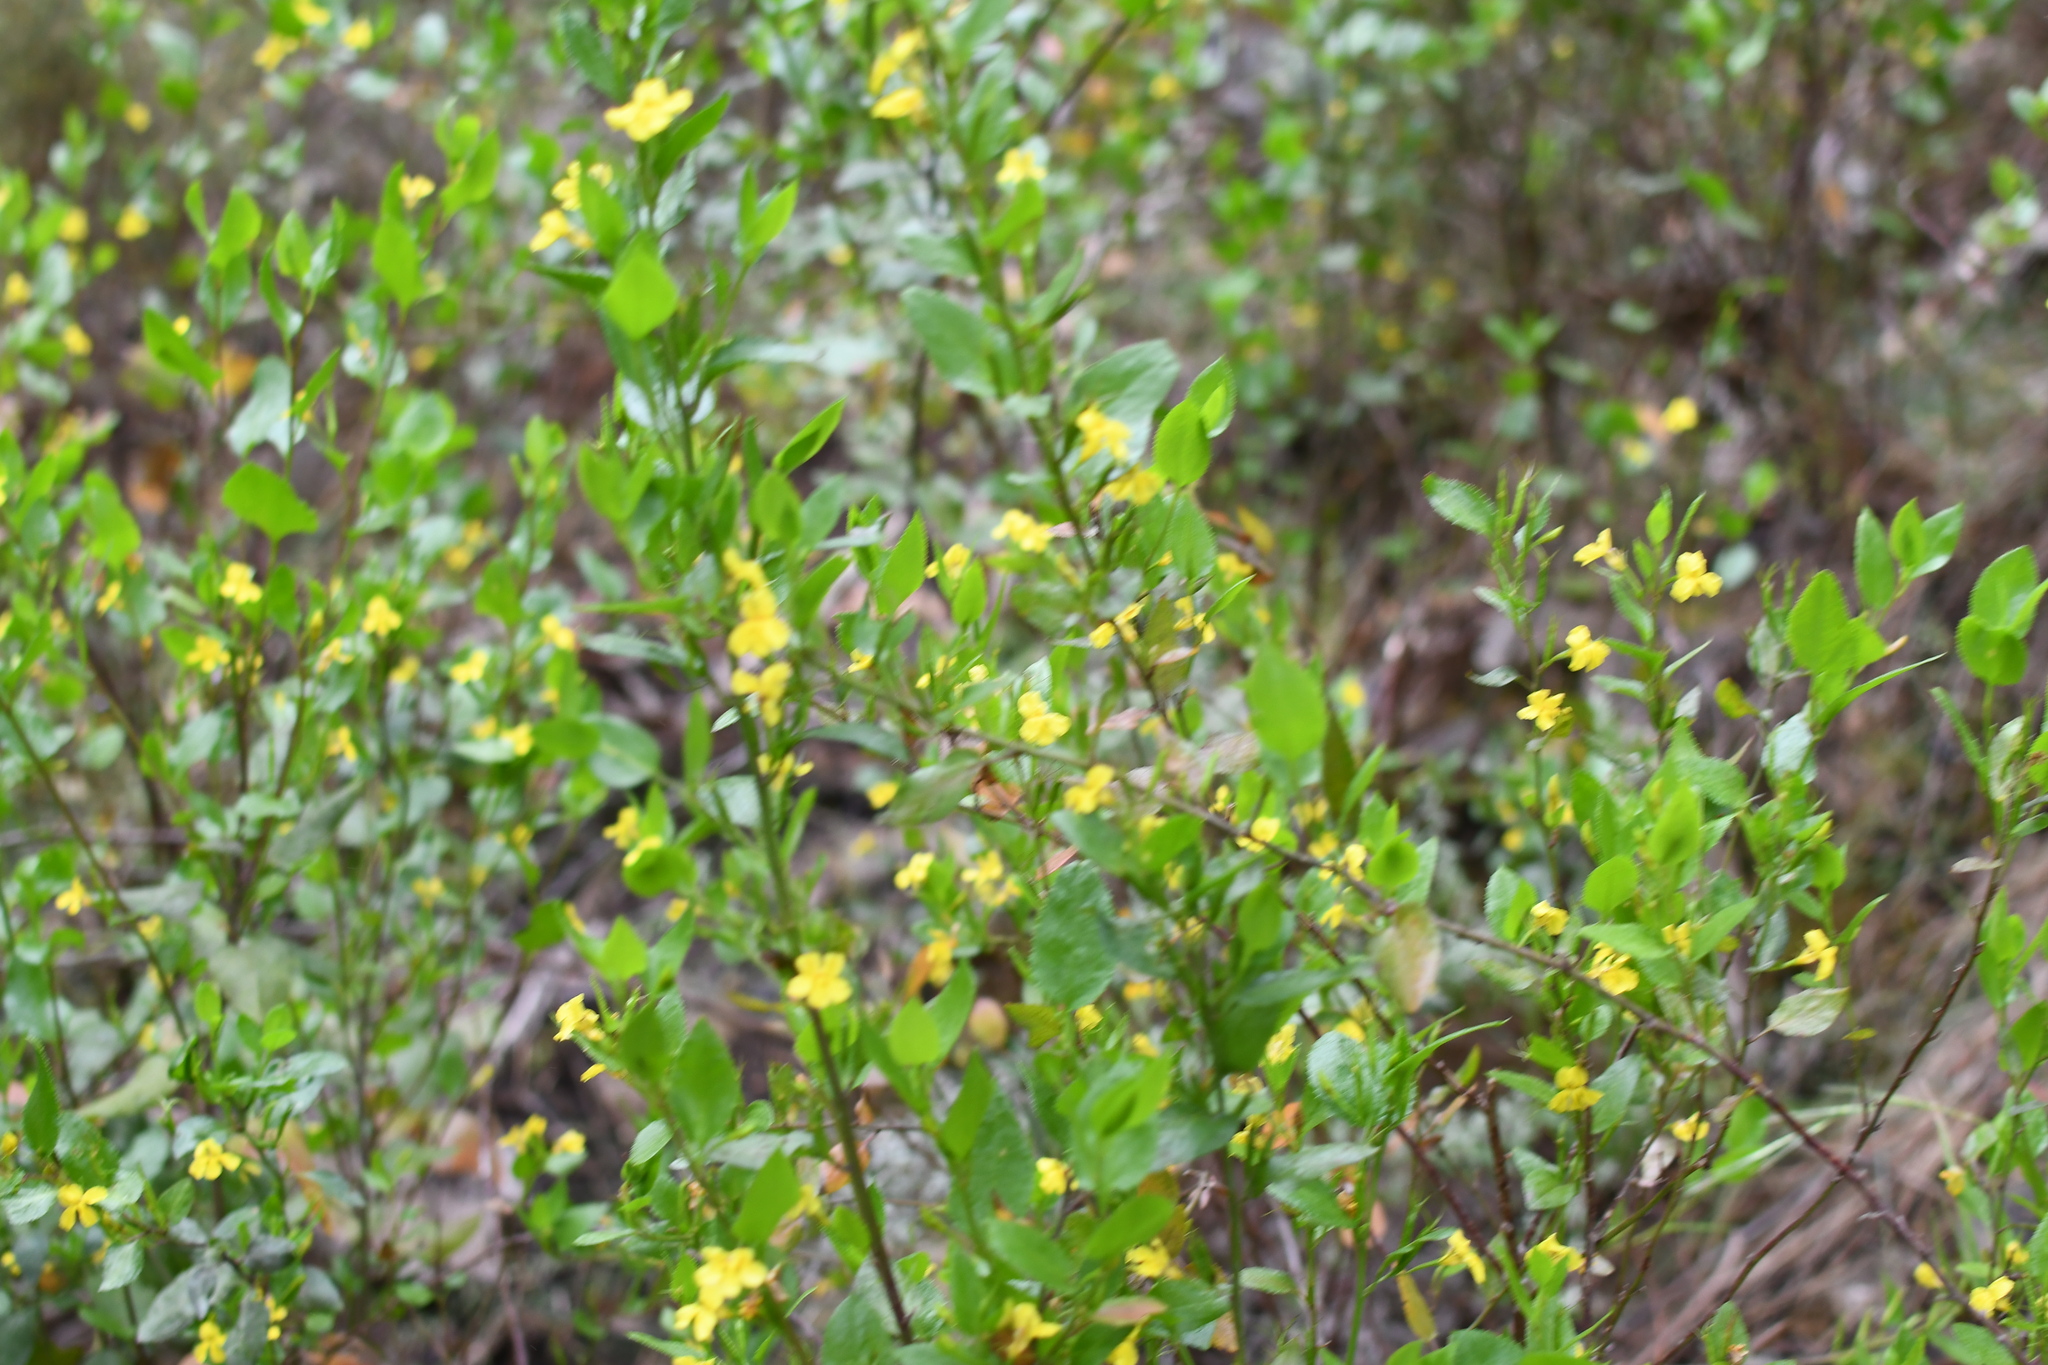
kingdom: Plantae
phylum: Tracheophyta
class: Magnoliopsida
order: Asterales
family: Goodeniaceae
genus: Goodenia
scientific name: Goodenia ovata
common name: Hop goodenia
